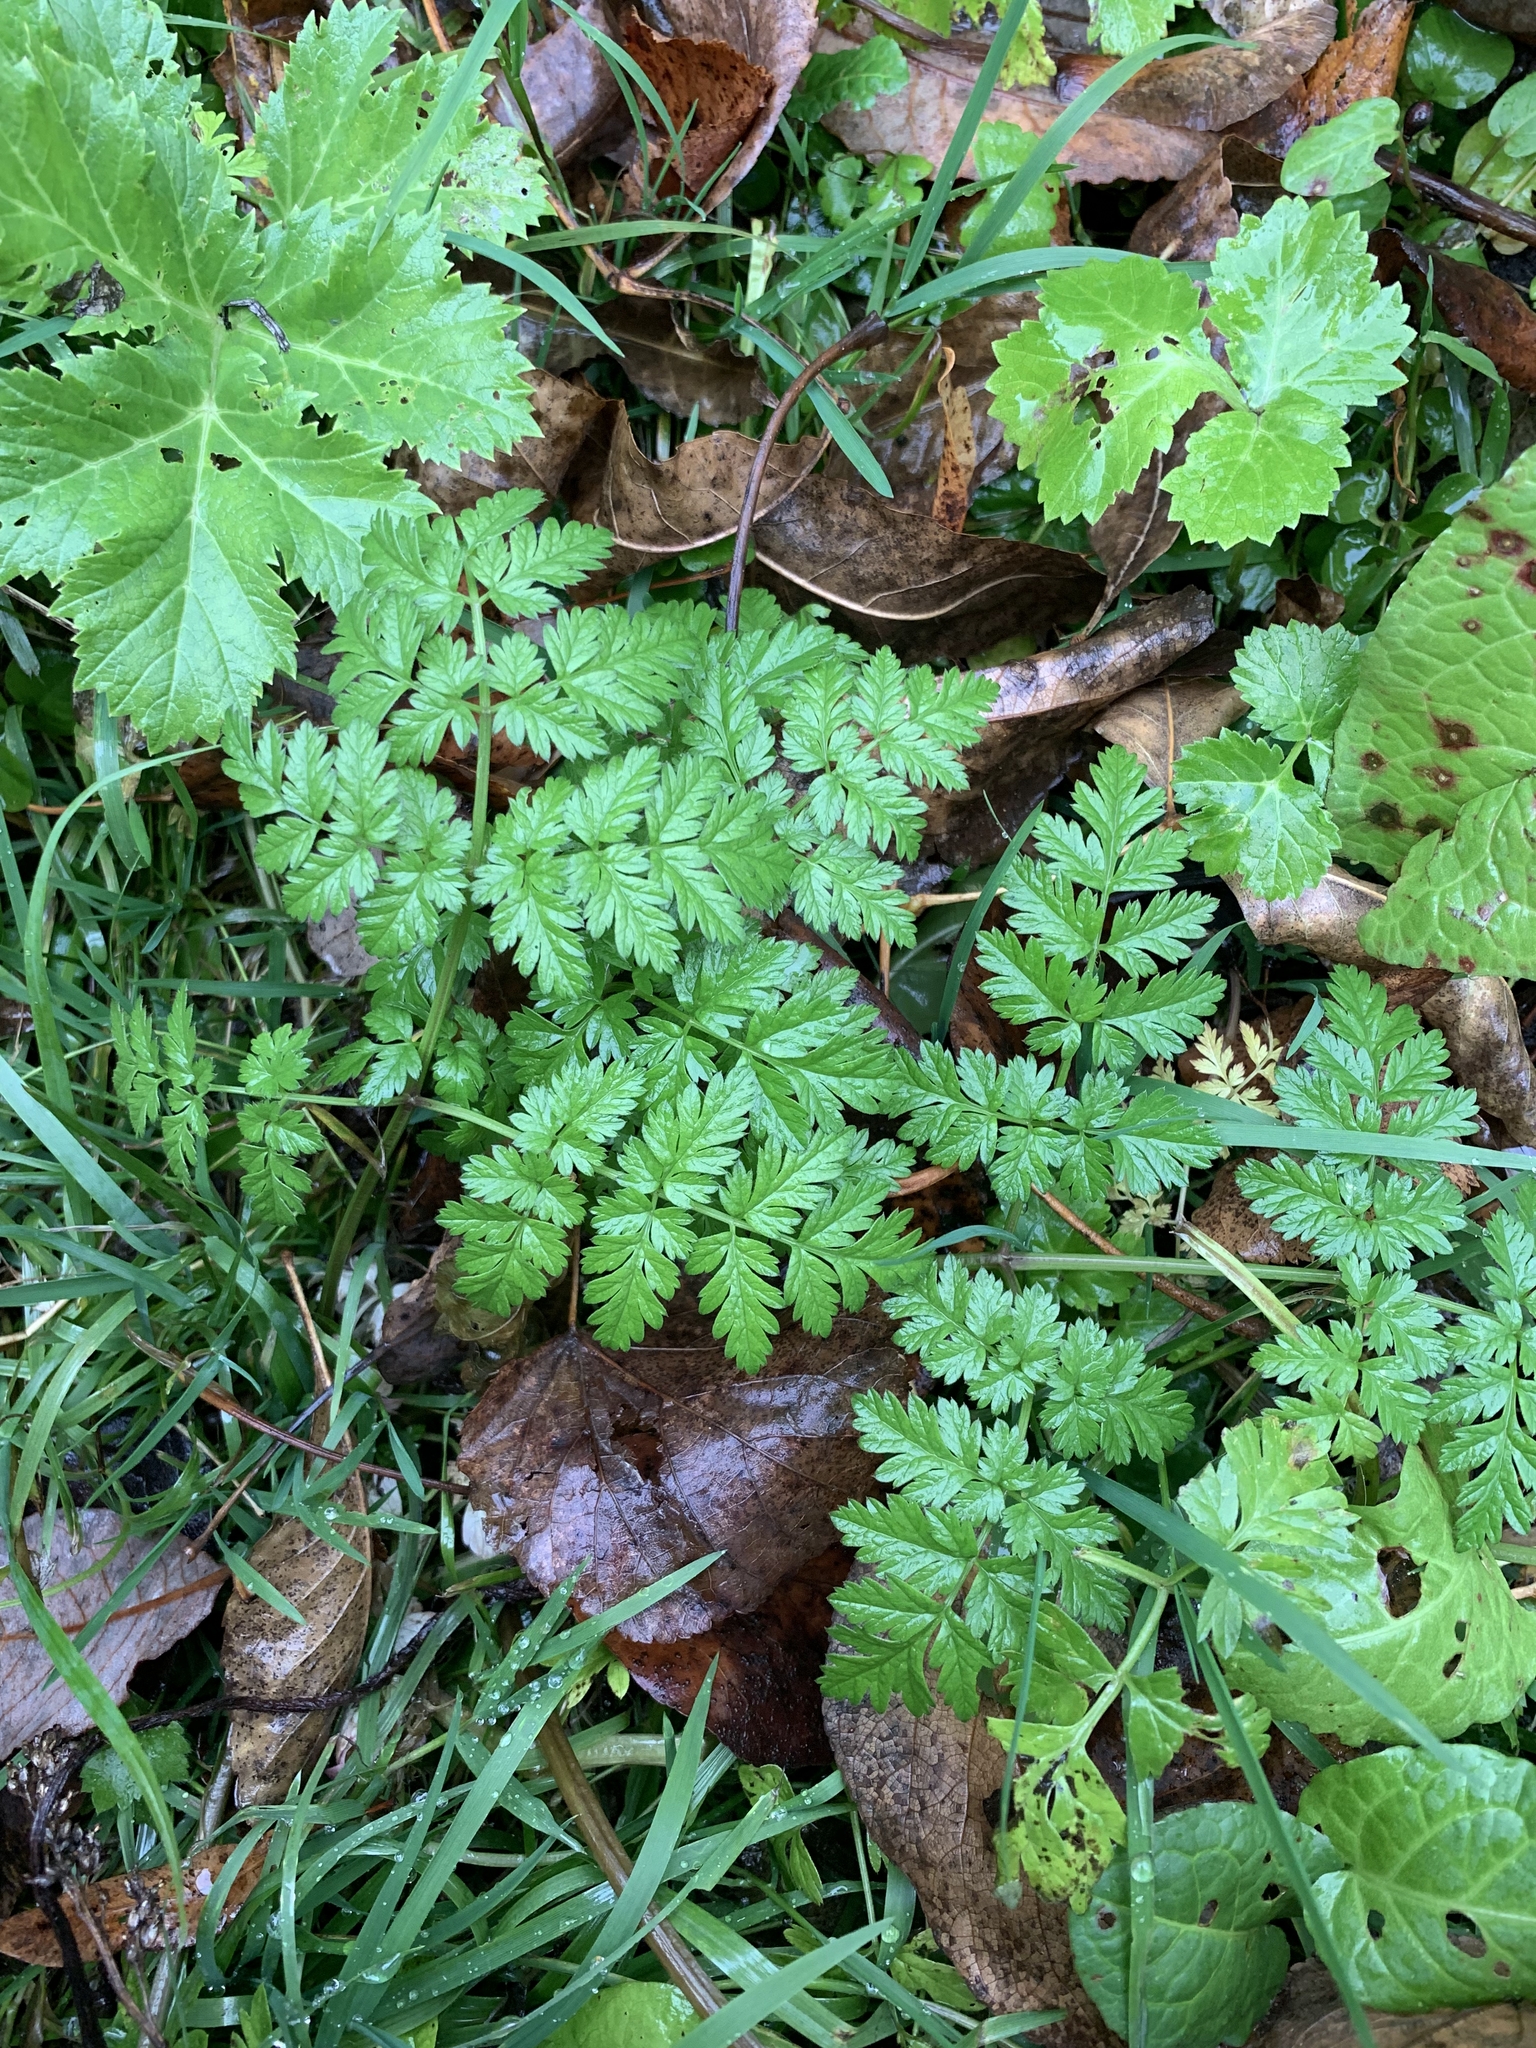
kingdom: Plantae
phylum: Tracheophyta
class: Magnoliopsida
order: Apiales
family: Apiaceae
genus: Anthriscus
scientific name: Anthriscus sylvestris
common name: Cow parsley
